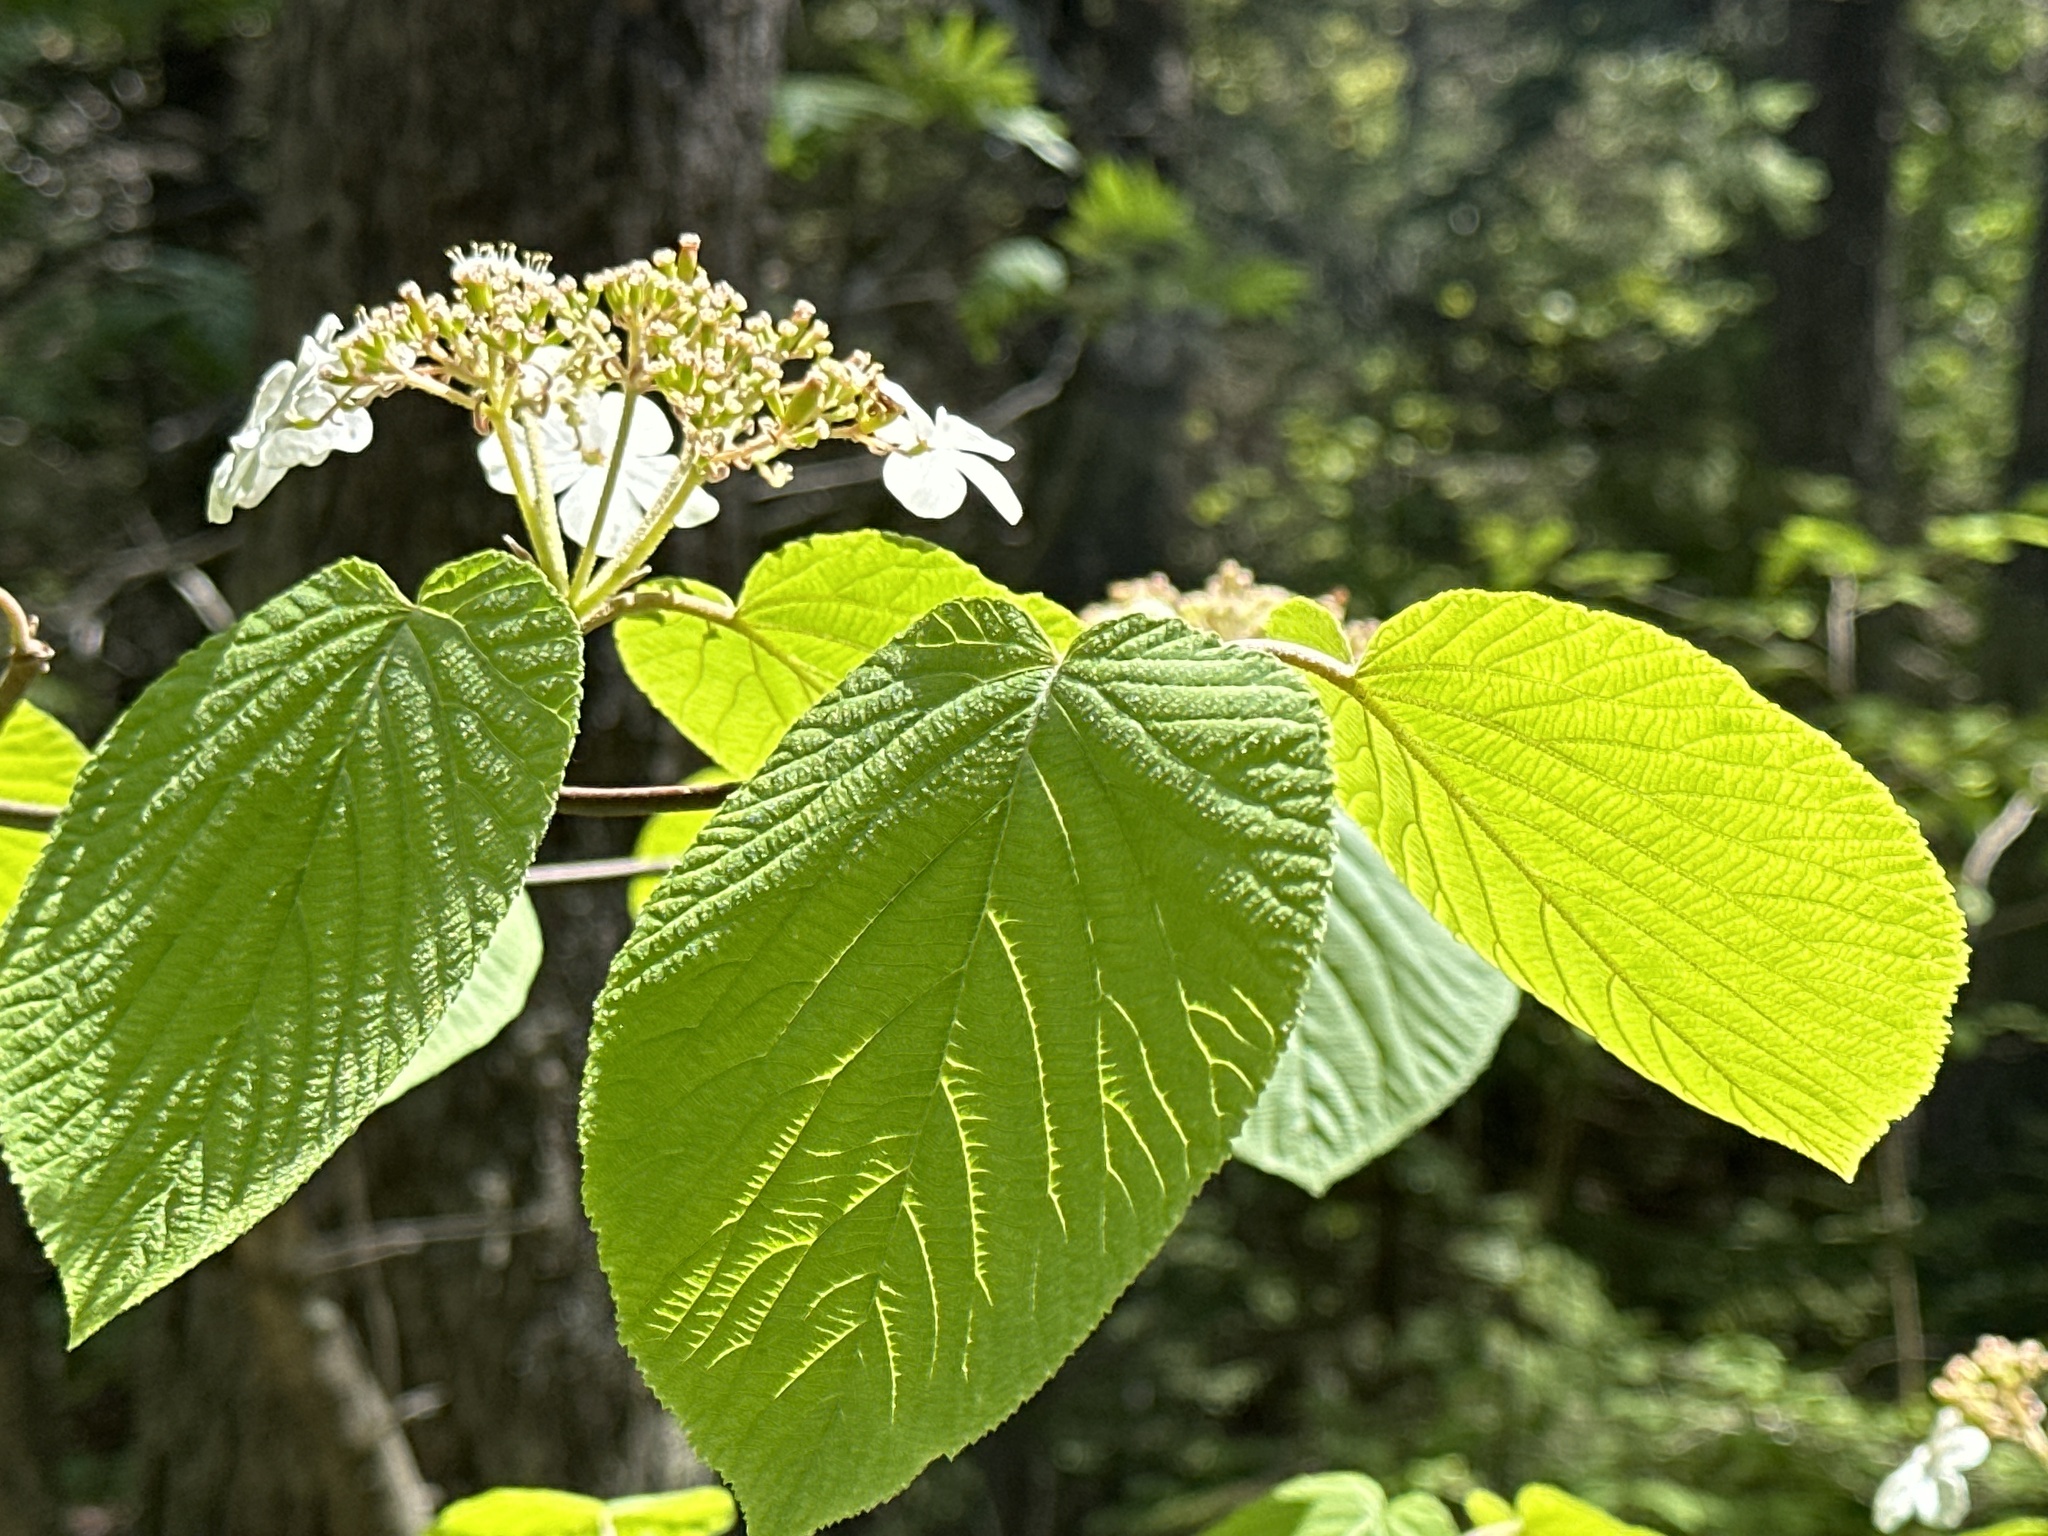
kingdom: Plantae
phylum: Tracheophyta
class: Magnoliopsida
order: Dipsacales
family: Viburnaceae
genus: Viburnum
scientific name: Viburnum lantanoides
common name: Hobblebush
